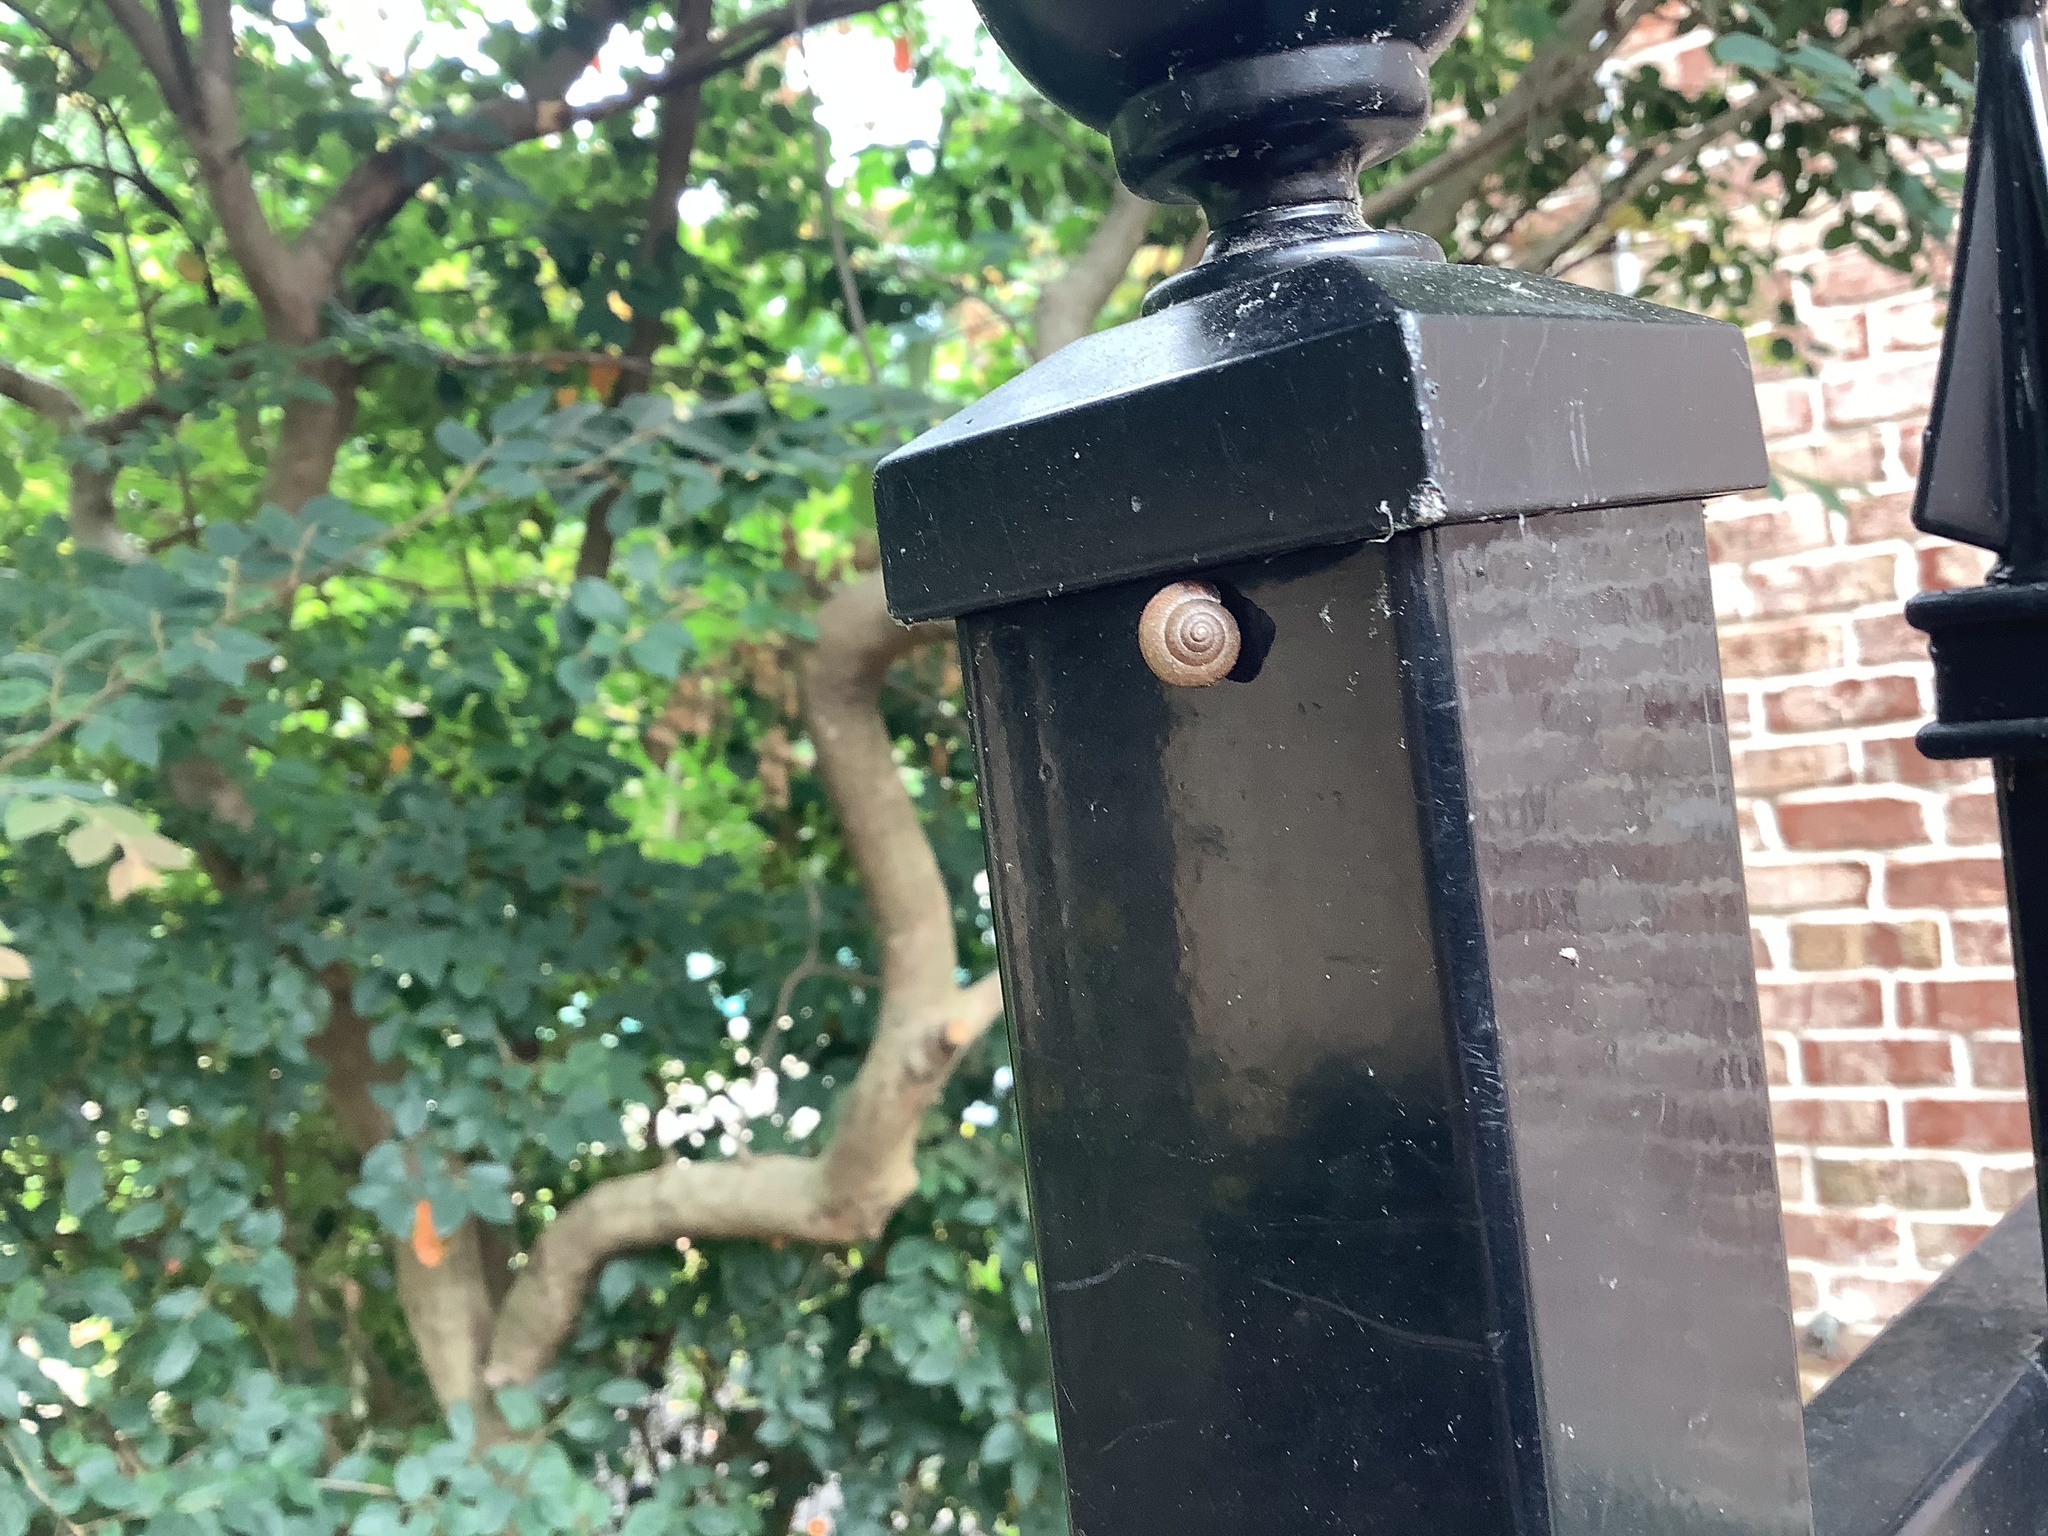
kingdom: Animalia
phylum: Mollusca
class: Gastropoda
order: Stylommatophora
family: Camaenidae
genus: Bradybaena
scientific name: Bradybaena similaris
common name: Asian trampsnail
